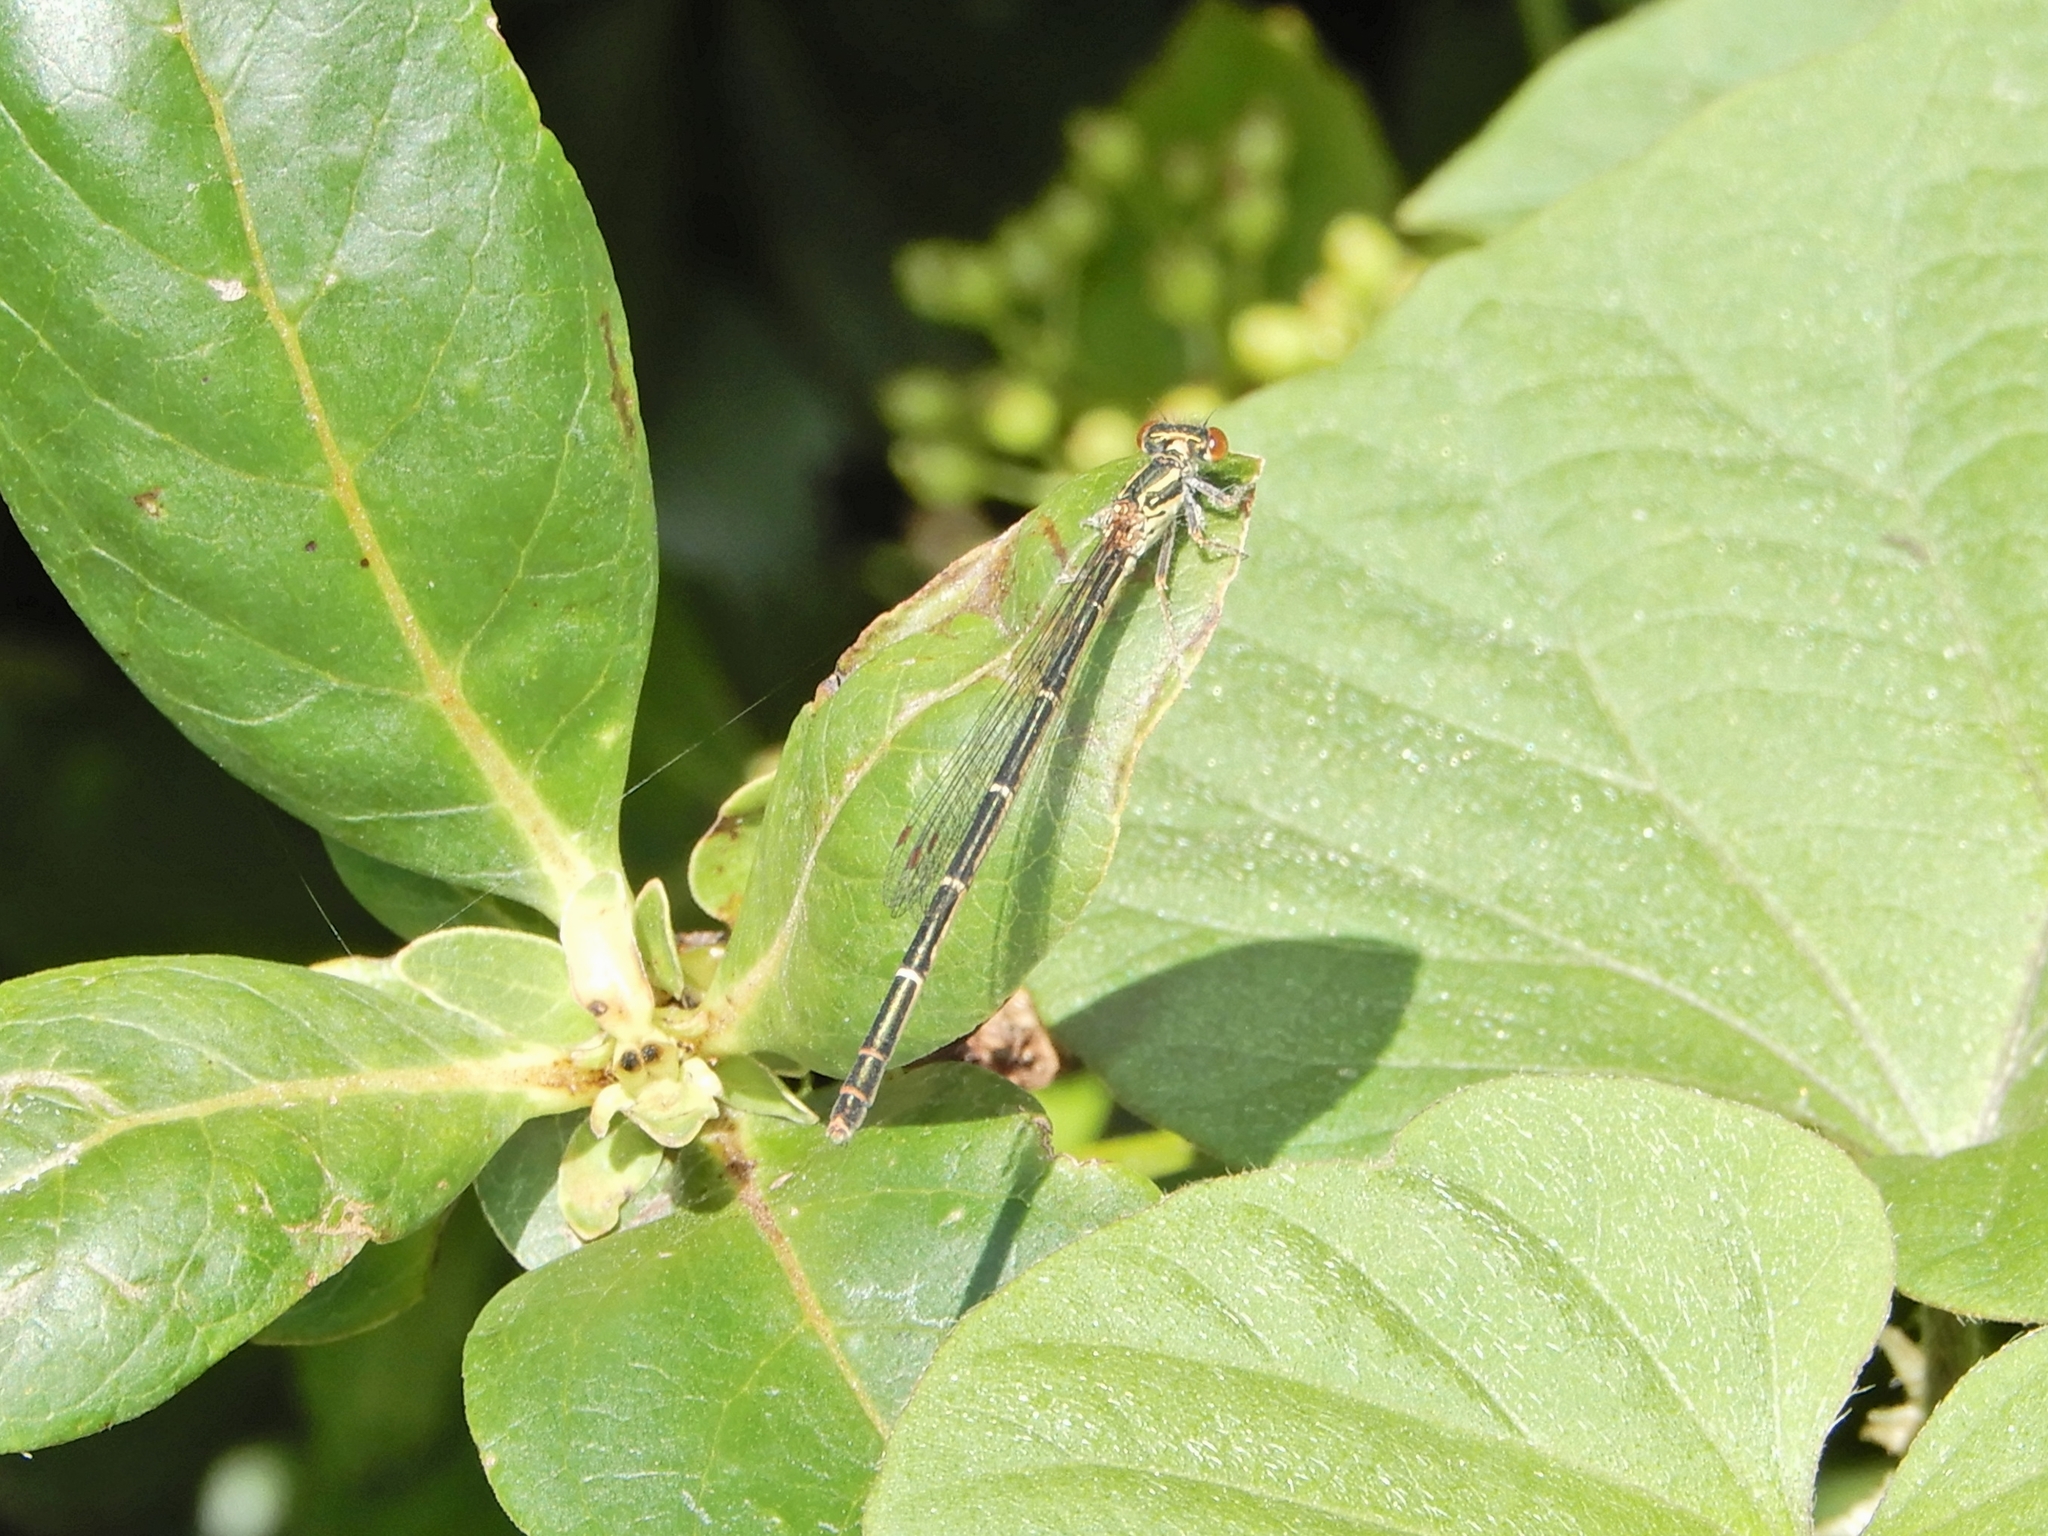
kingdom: Animalia
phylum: Arthropoda
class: Insecta
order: Odonata
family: Coenagrionidae
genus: Xanthocnemis
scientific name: Xanthocnemis zealandica
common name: Common redcoat damselfly
